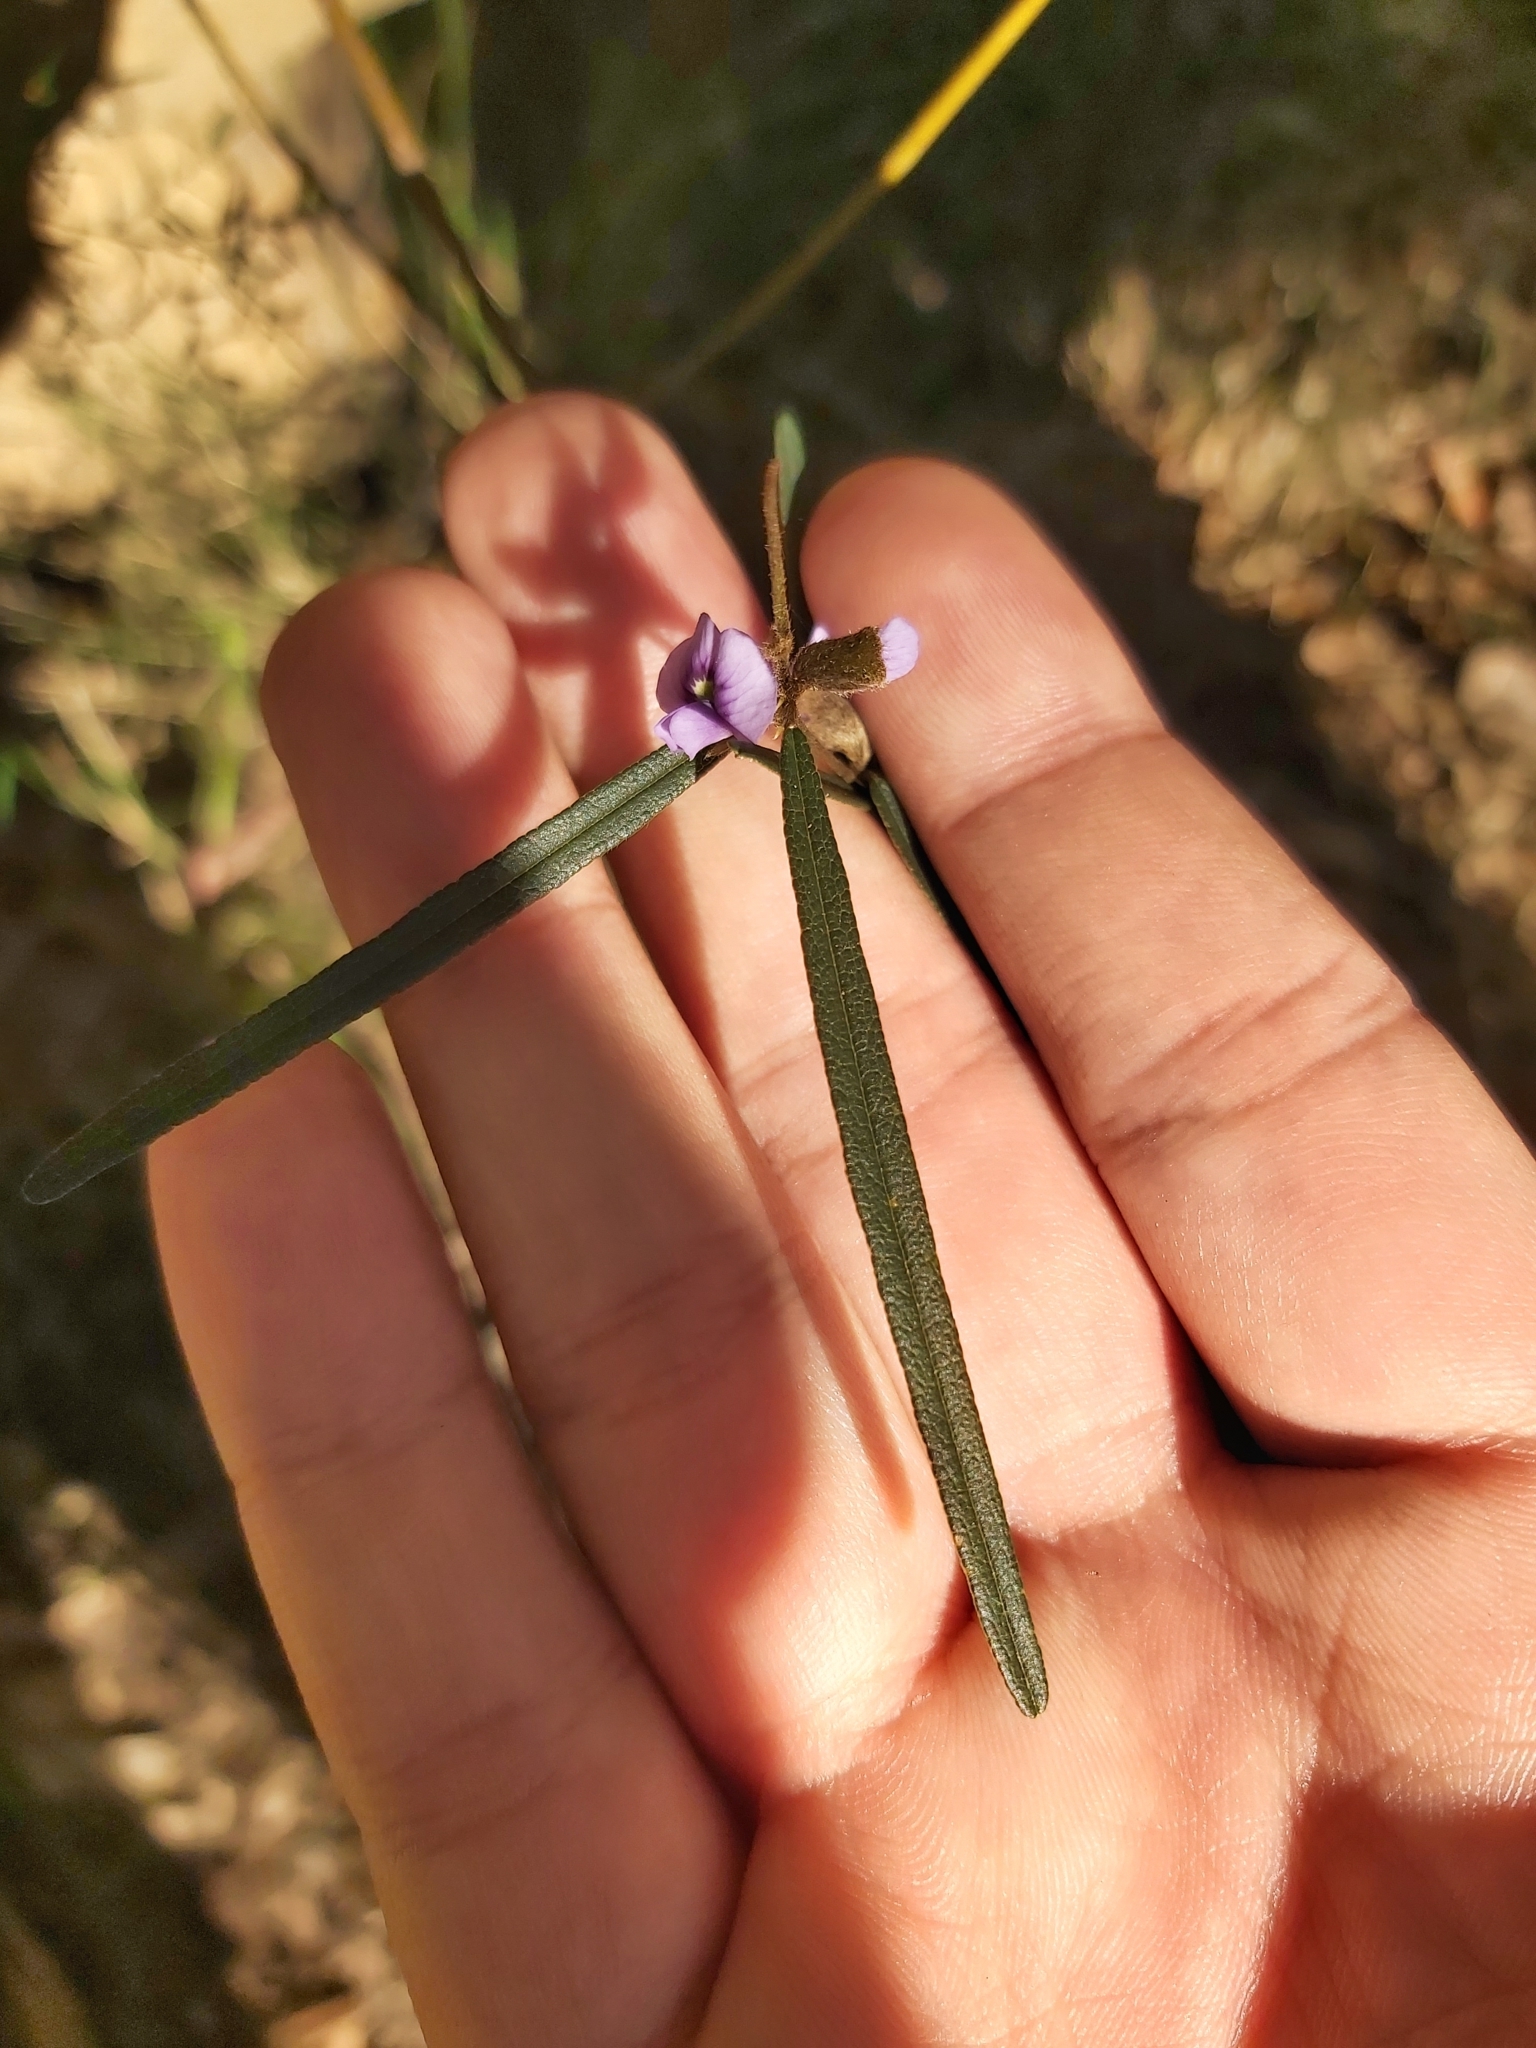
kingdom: Plantae
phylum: Tracheophyta
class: Magnoliopsida
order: Fabales
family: Fabaceae
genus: Hovea
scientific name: Hovea longifolia
